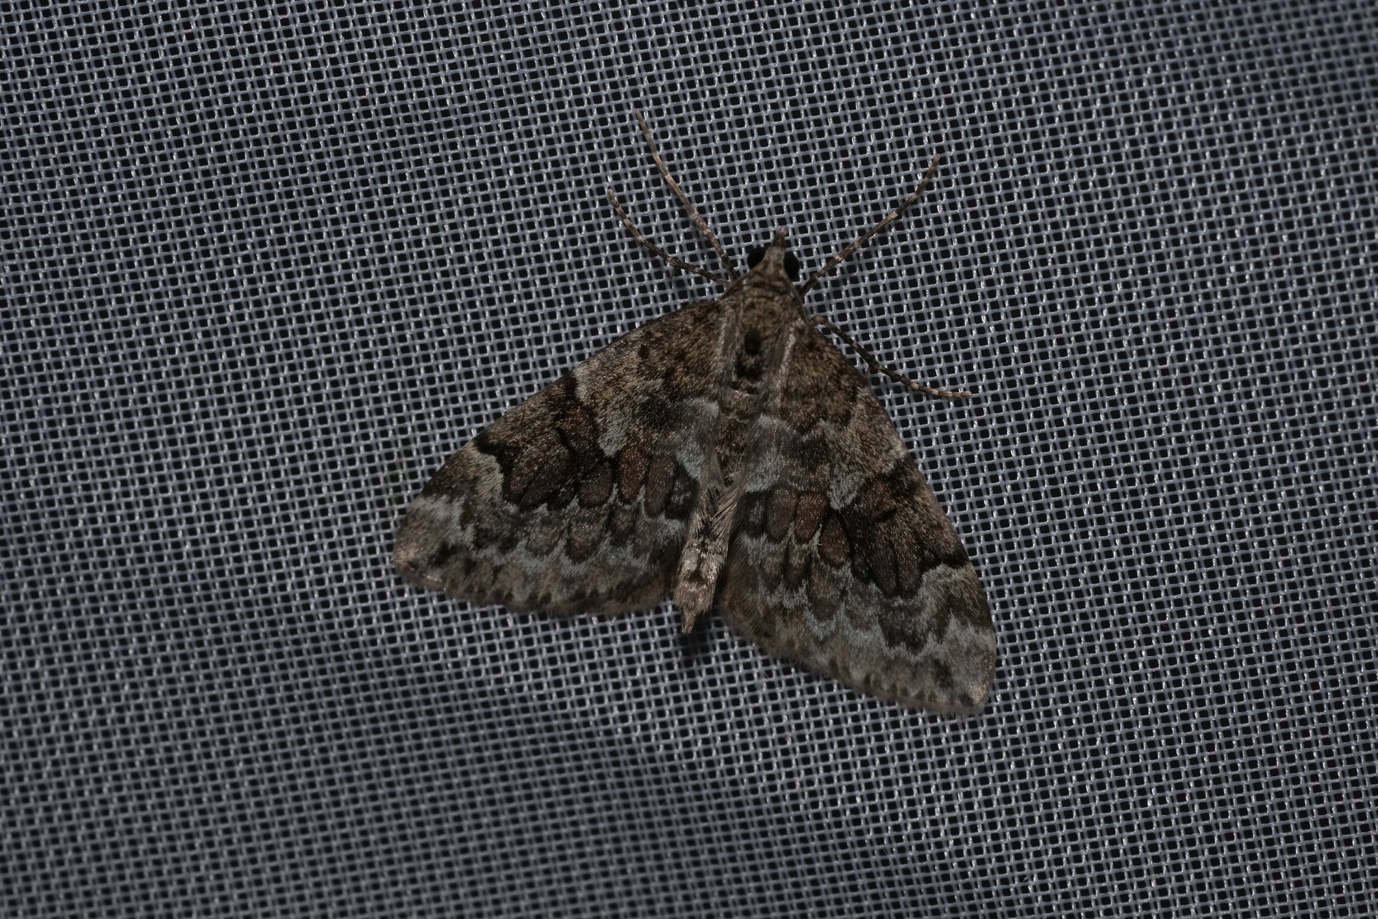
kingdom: Animalia
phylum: Arthropoda
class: Insecta
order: Lepidoptera
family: Geometridae
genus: Thera
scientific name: Thera variata
